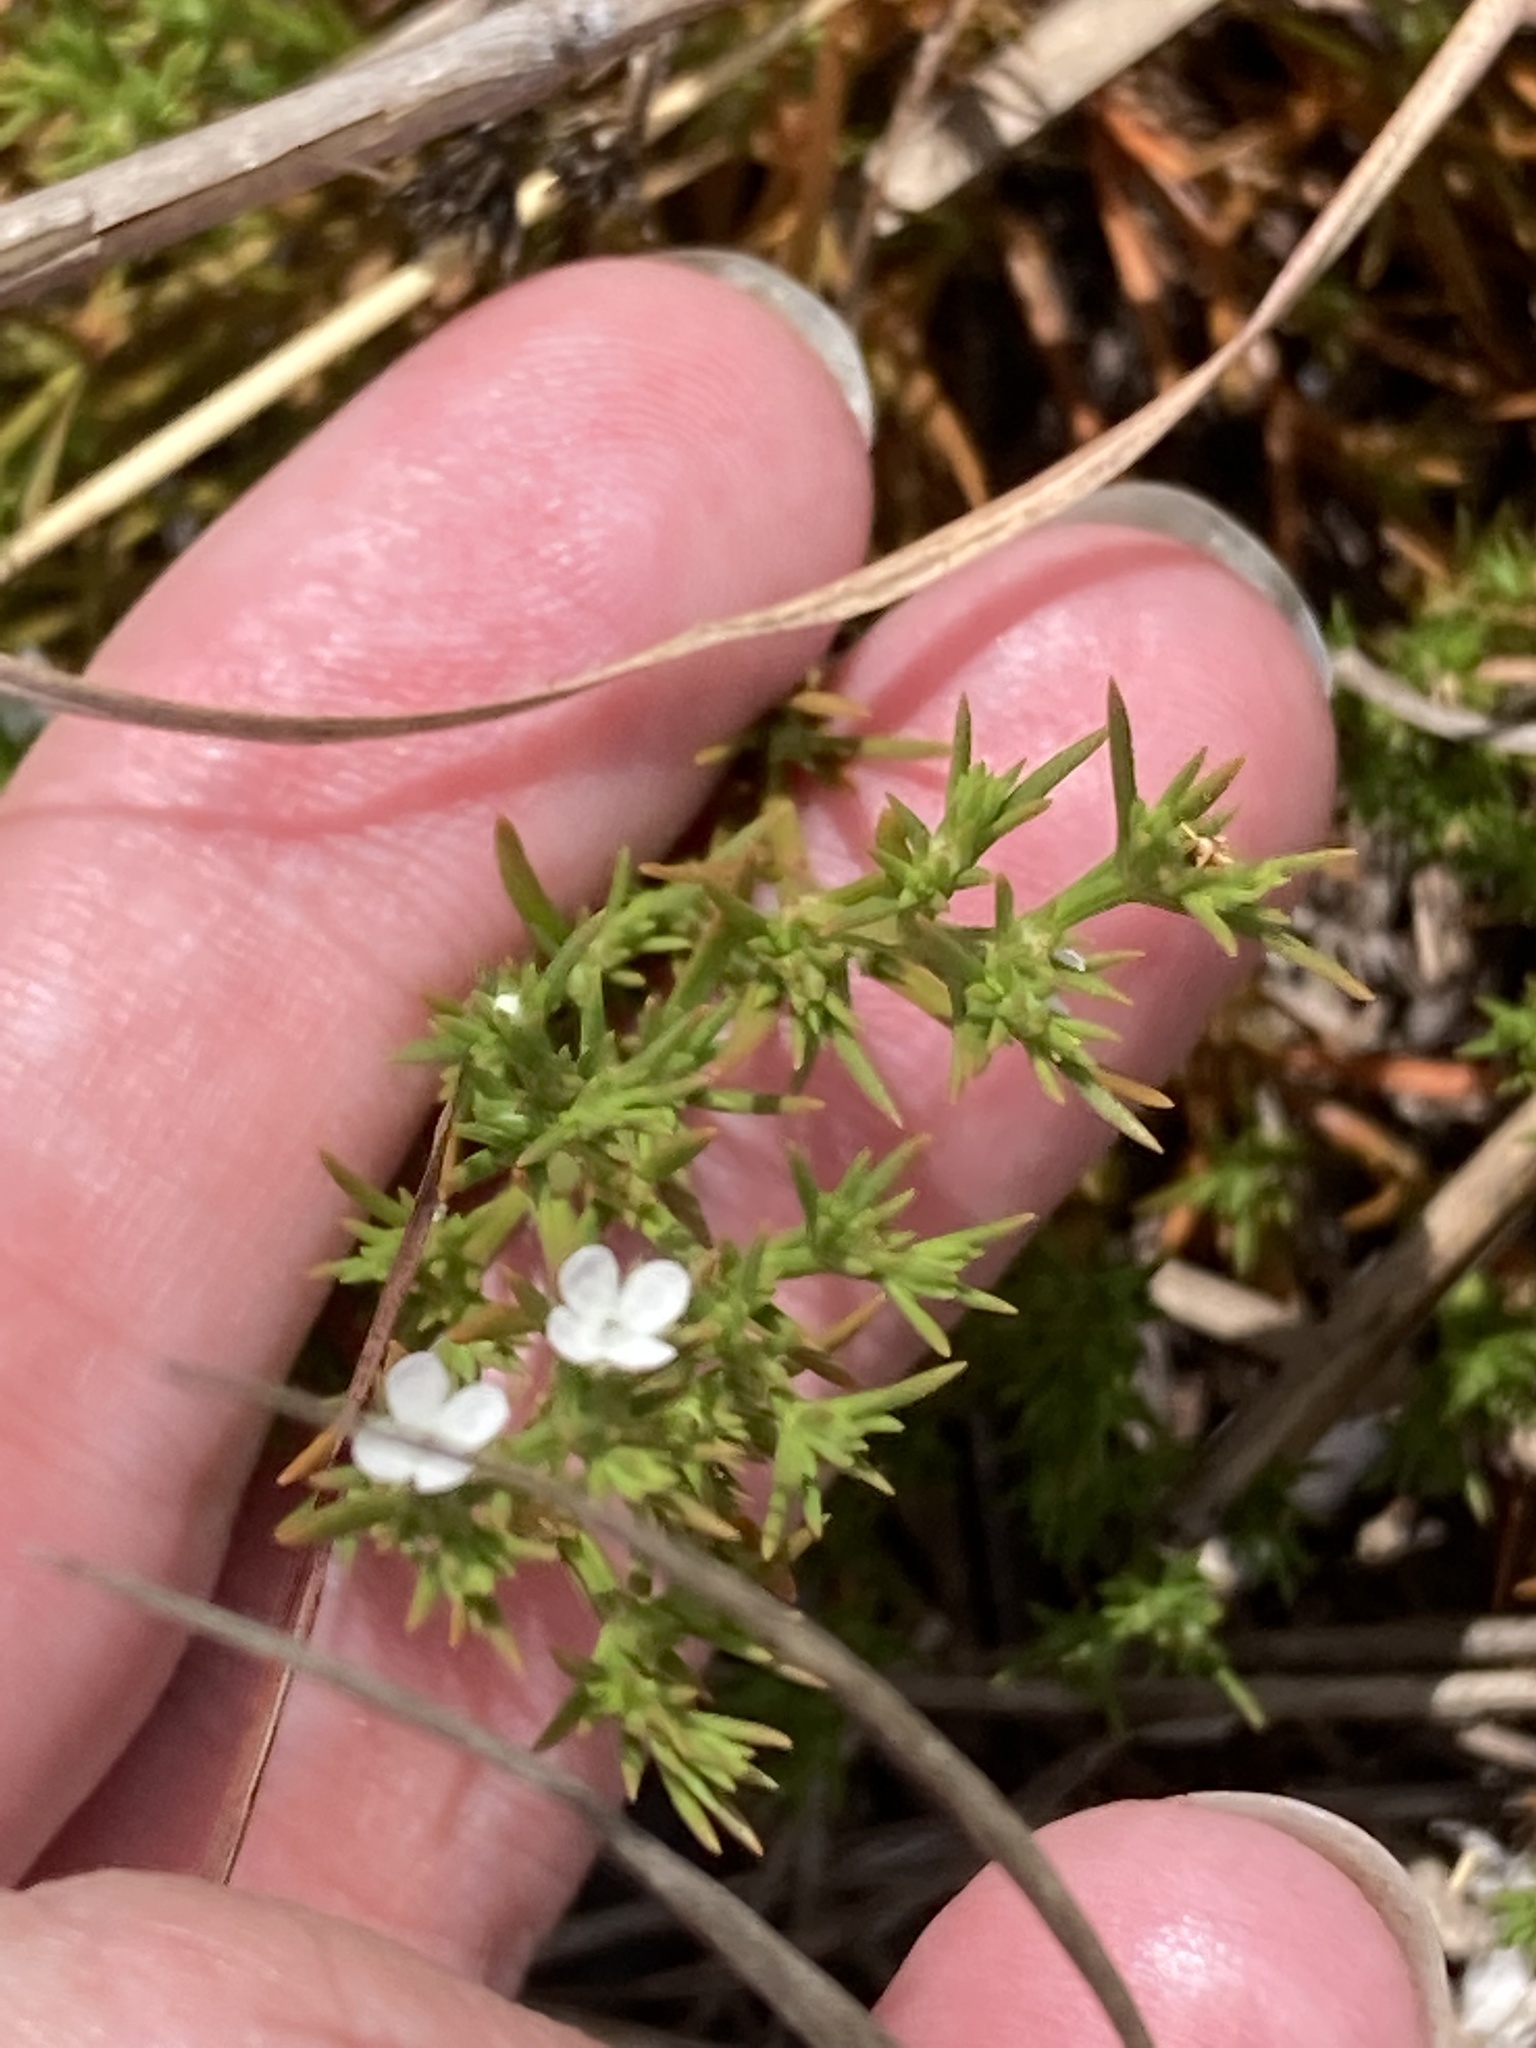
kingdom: Plantae
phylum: Tracheophyta
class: Magnoliopsida
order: Lamiales
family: Tetrachondraceae
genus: Polypremum
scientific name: Polypremum procumbens
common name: Juniper-leaf
